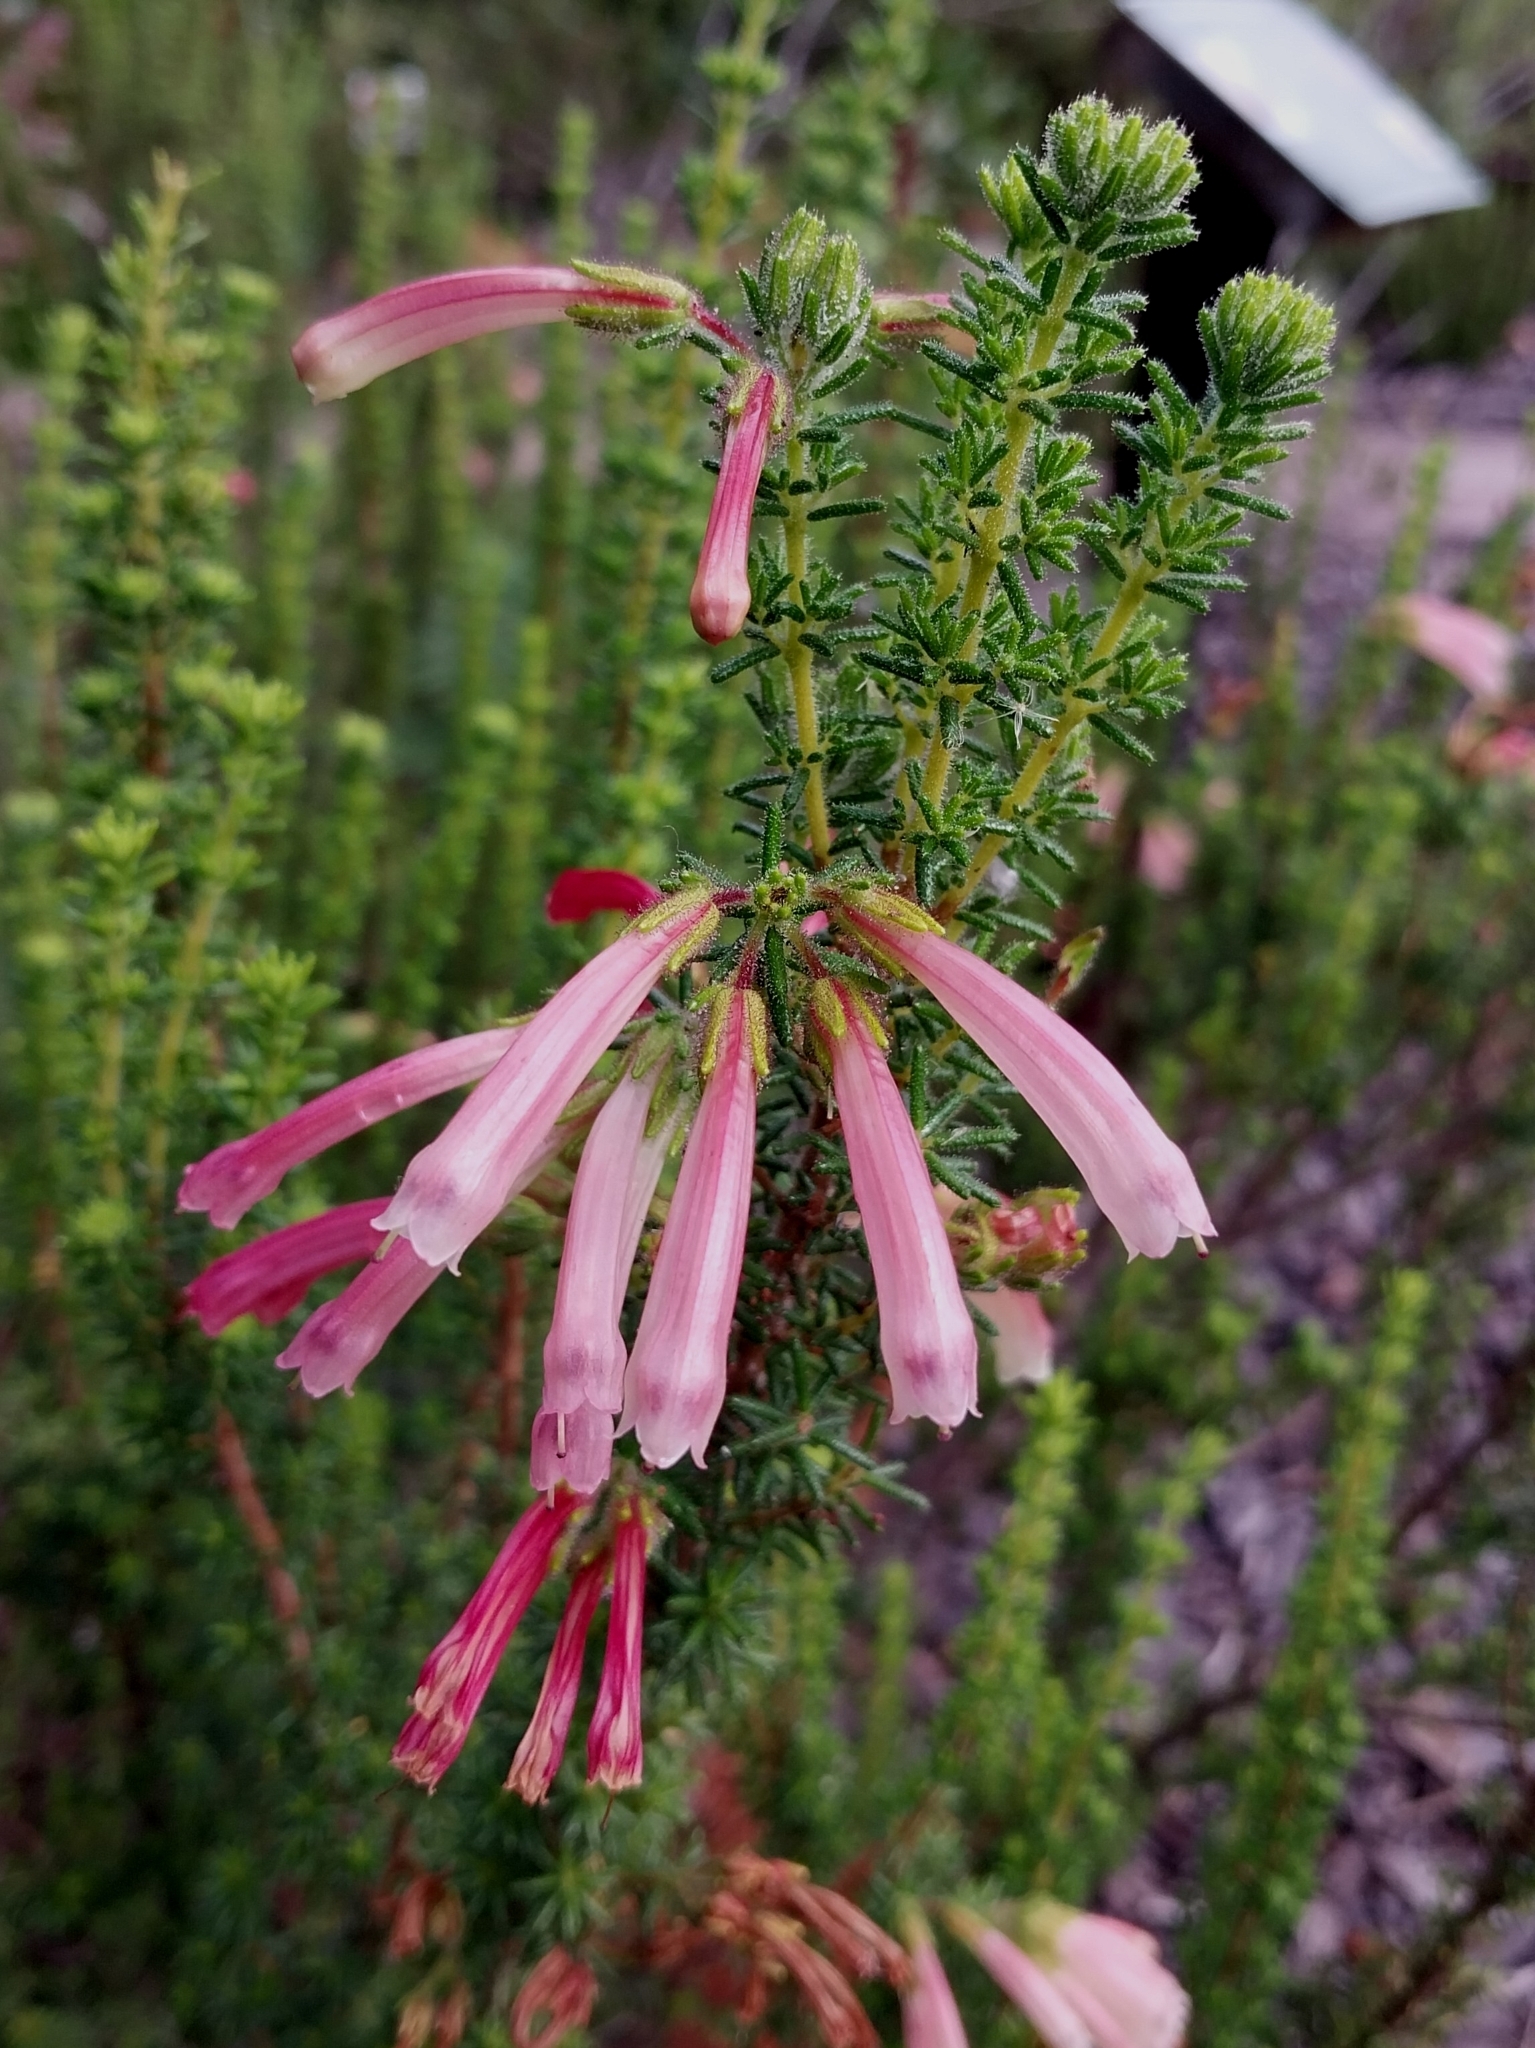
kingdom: Plantae
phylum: Tracheophyta
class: Magnoliopsida
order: Ericales
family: Ericaceae
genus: Erica
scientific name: Erica glandulosa
